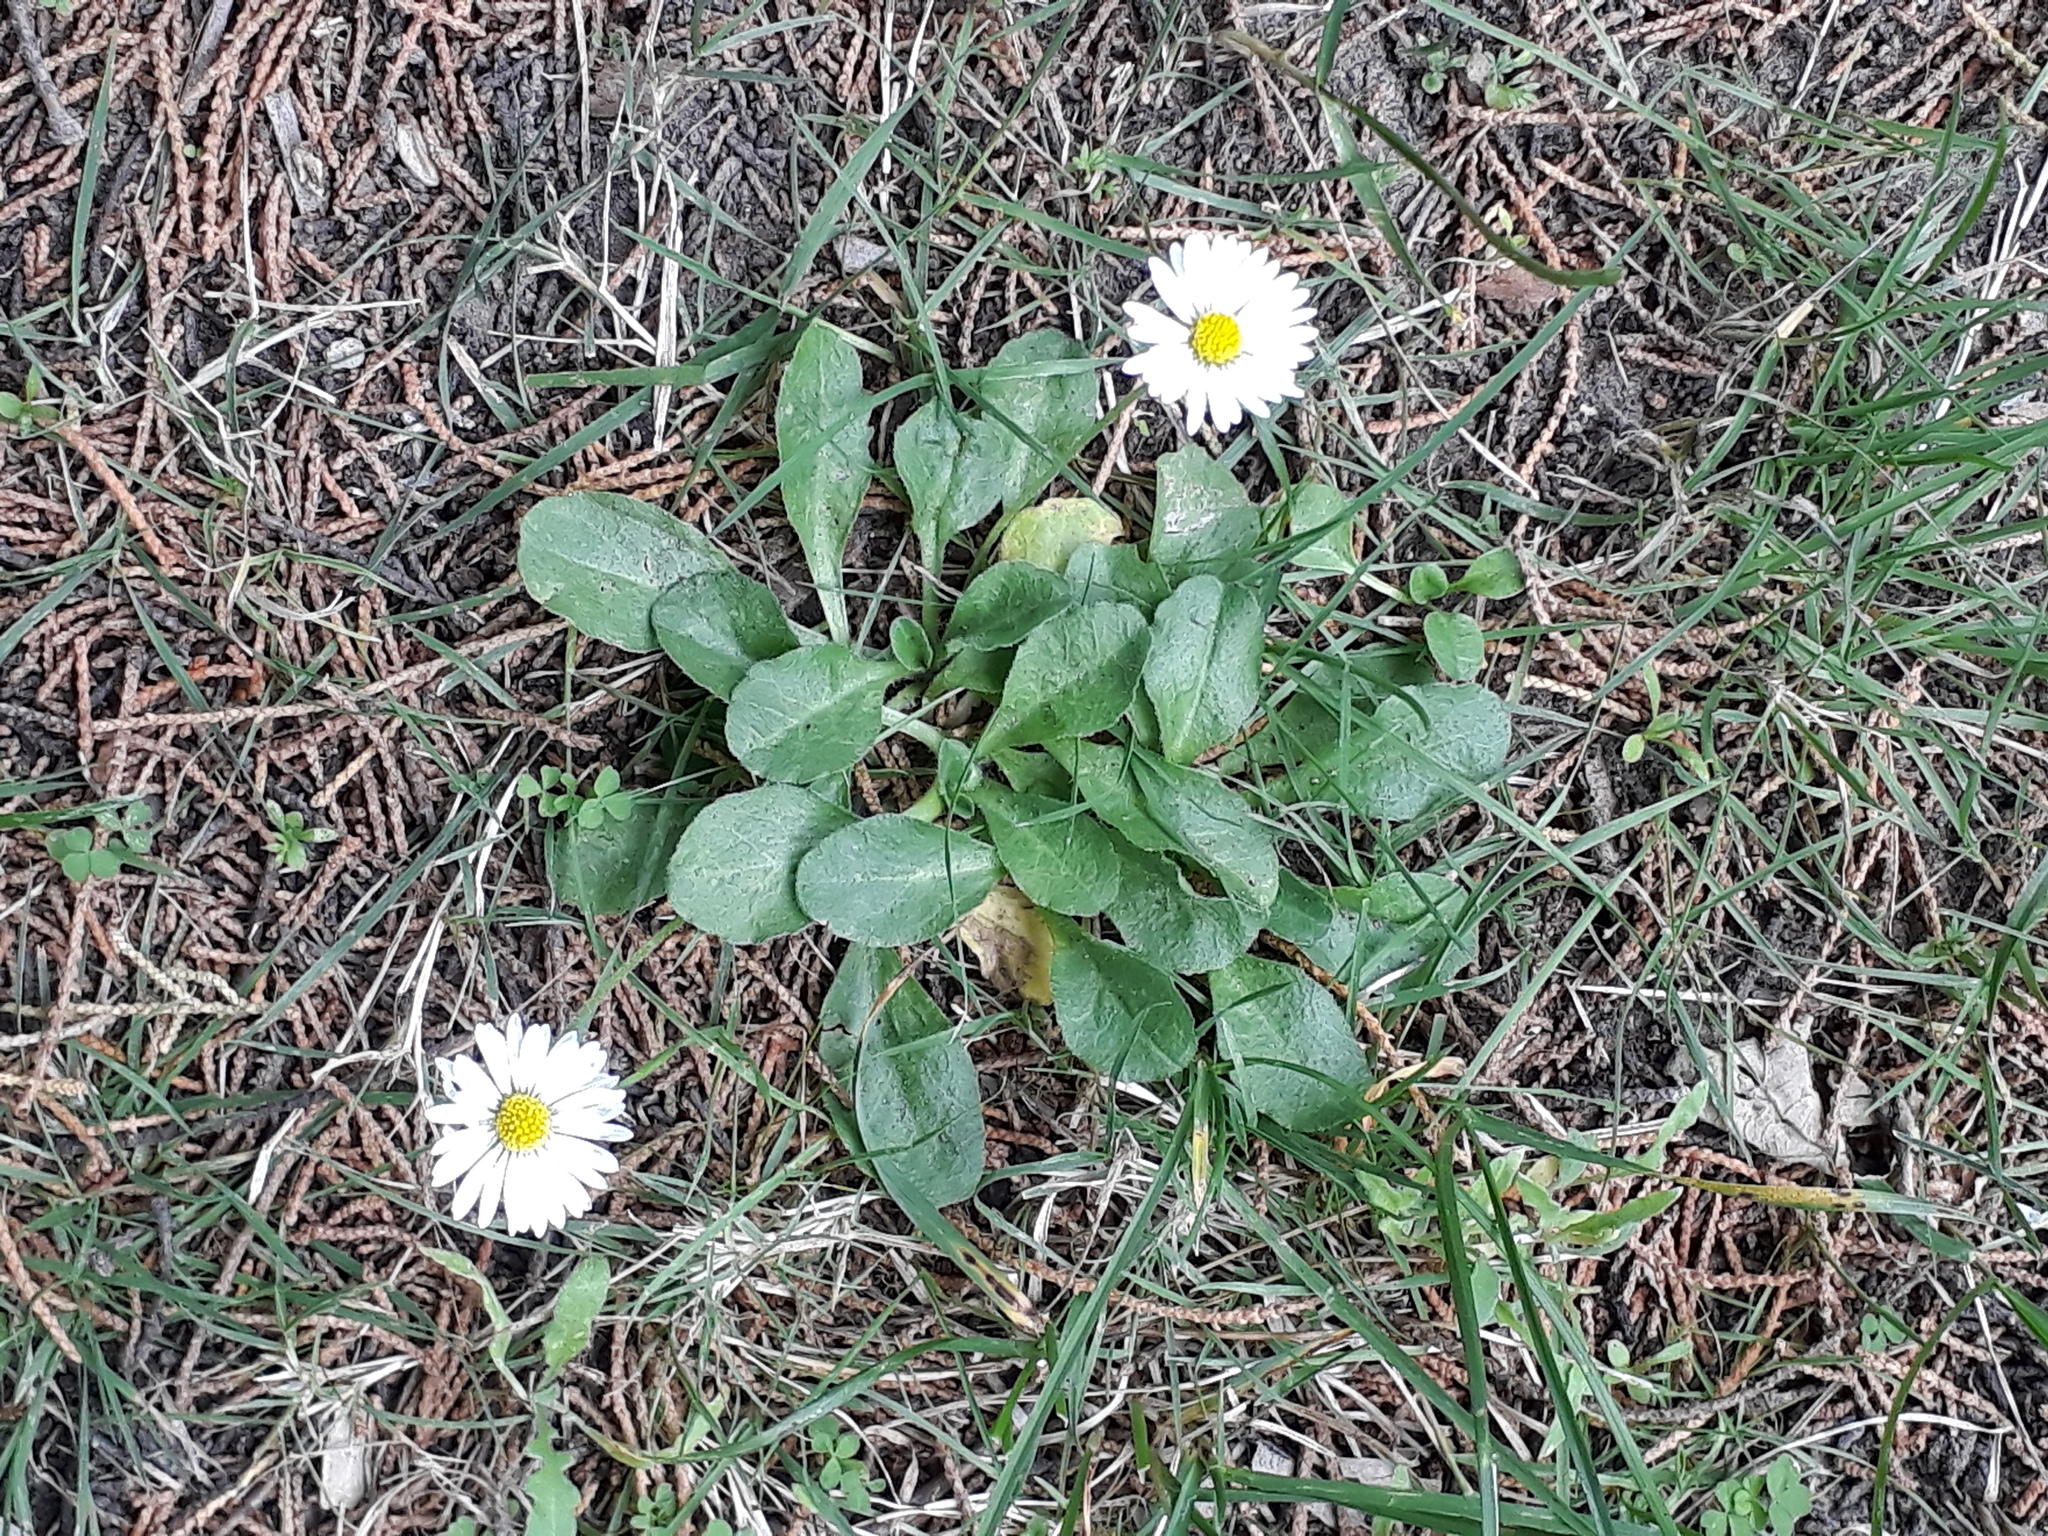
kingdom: Plantae
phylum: Tracheophyta
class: Magnoliopsida
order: Asterales
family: Asteraceae
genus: Bellis
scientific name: Bellis perennis
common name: Lawndaisy
